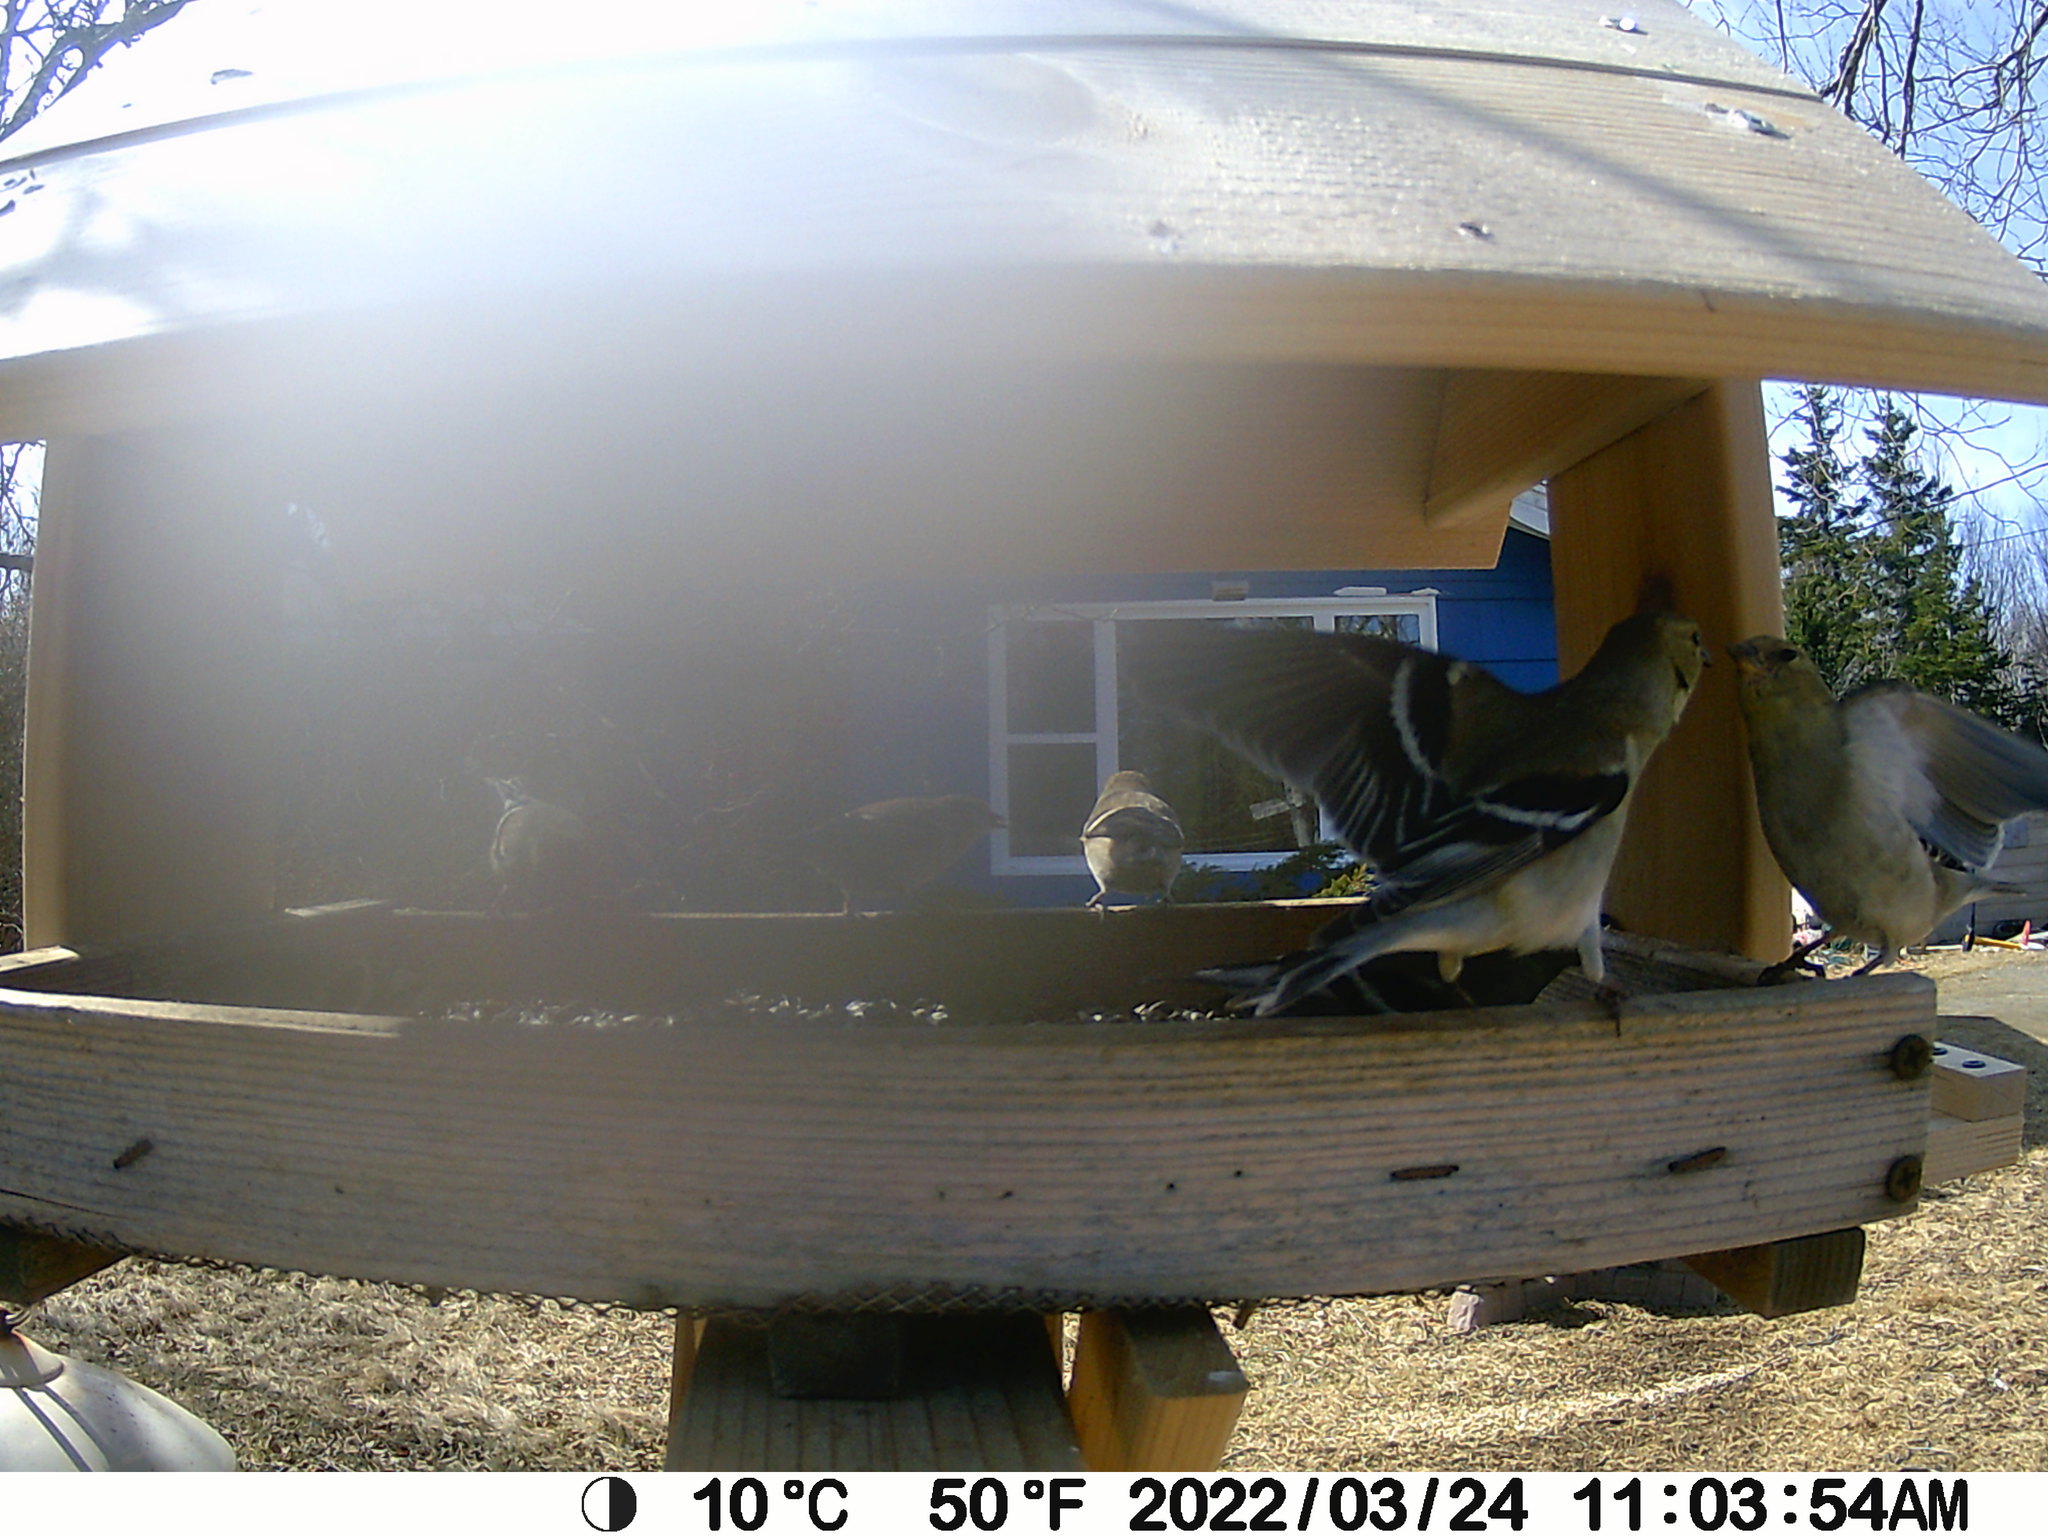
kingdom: Animalia
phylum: Chordata
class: Aves
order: Passeriformes
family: Fringillidae
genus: Spinus
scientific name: Spinus tristis
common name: American goldfinch
